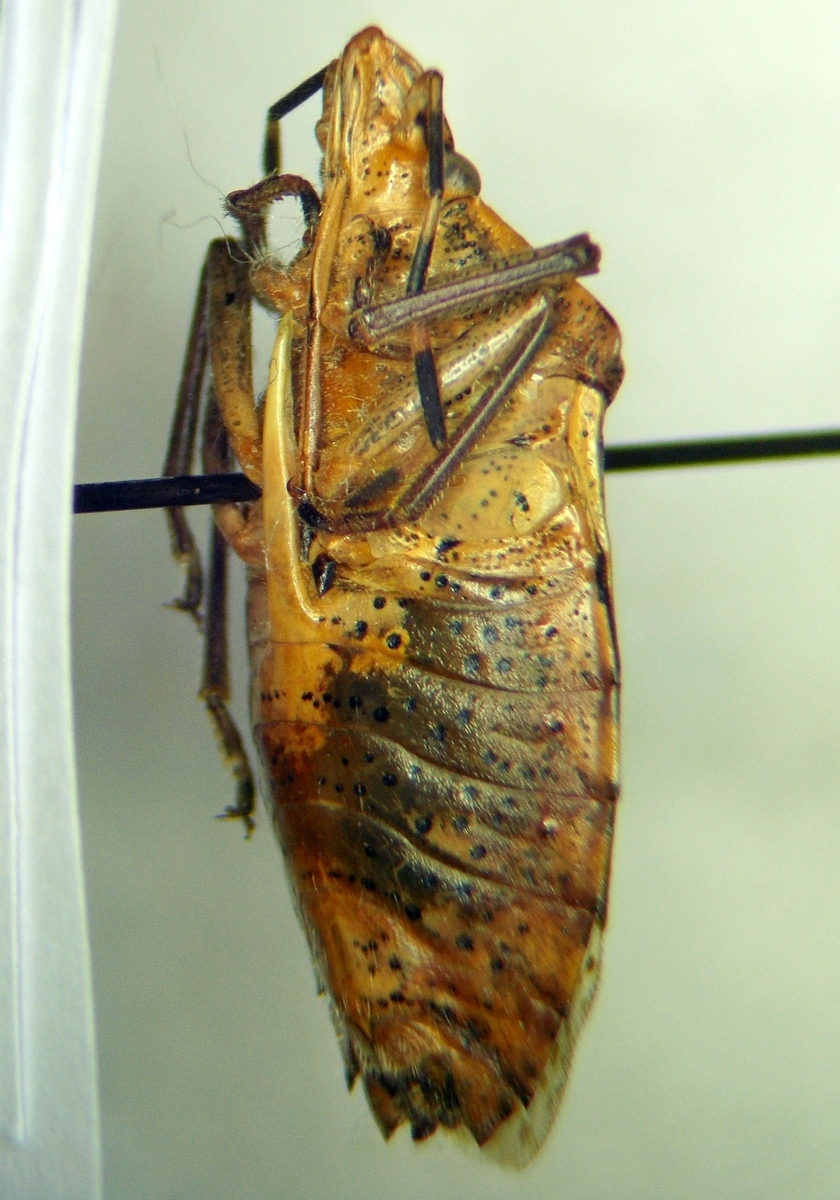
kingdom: Animalia
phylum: Arthropoda
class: Insecta
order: Hemiptera
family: Pentatomidae
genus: Rhaphigaster
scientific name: Rhaphigaster nebulosa
